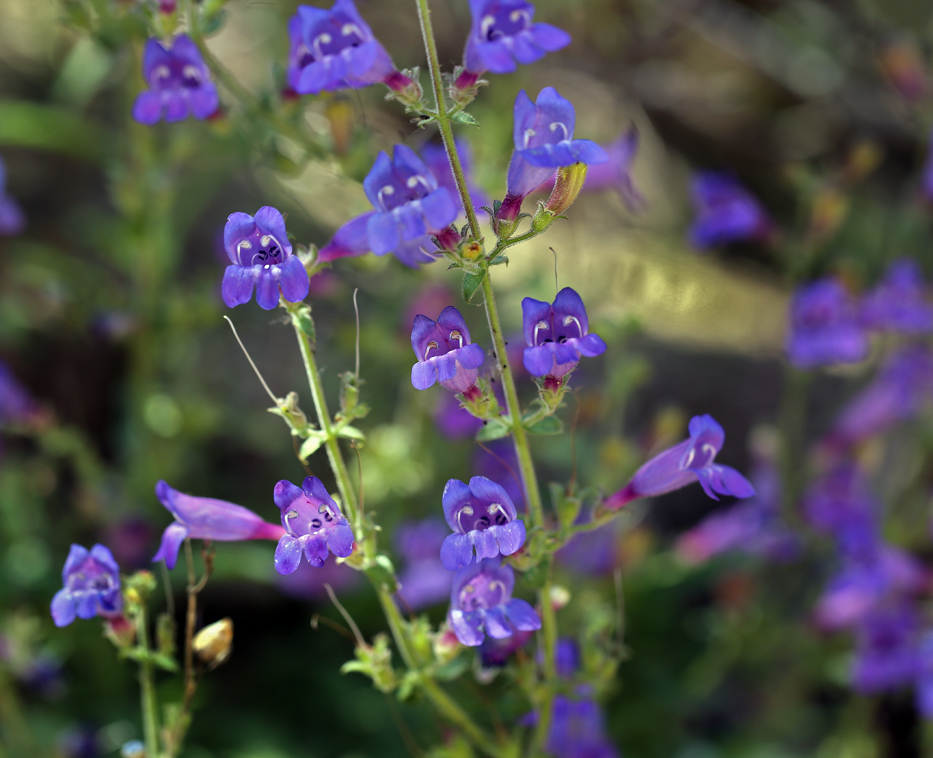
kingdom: Plantae
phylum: Tracheophyta
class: Magnoliopsida
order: Lamiales
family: Plantaginaceae
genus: Penstemon
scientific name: Penstemon laetus
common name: Gay penstemon
